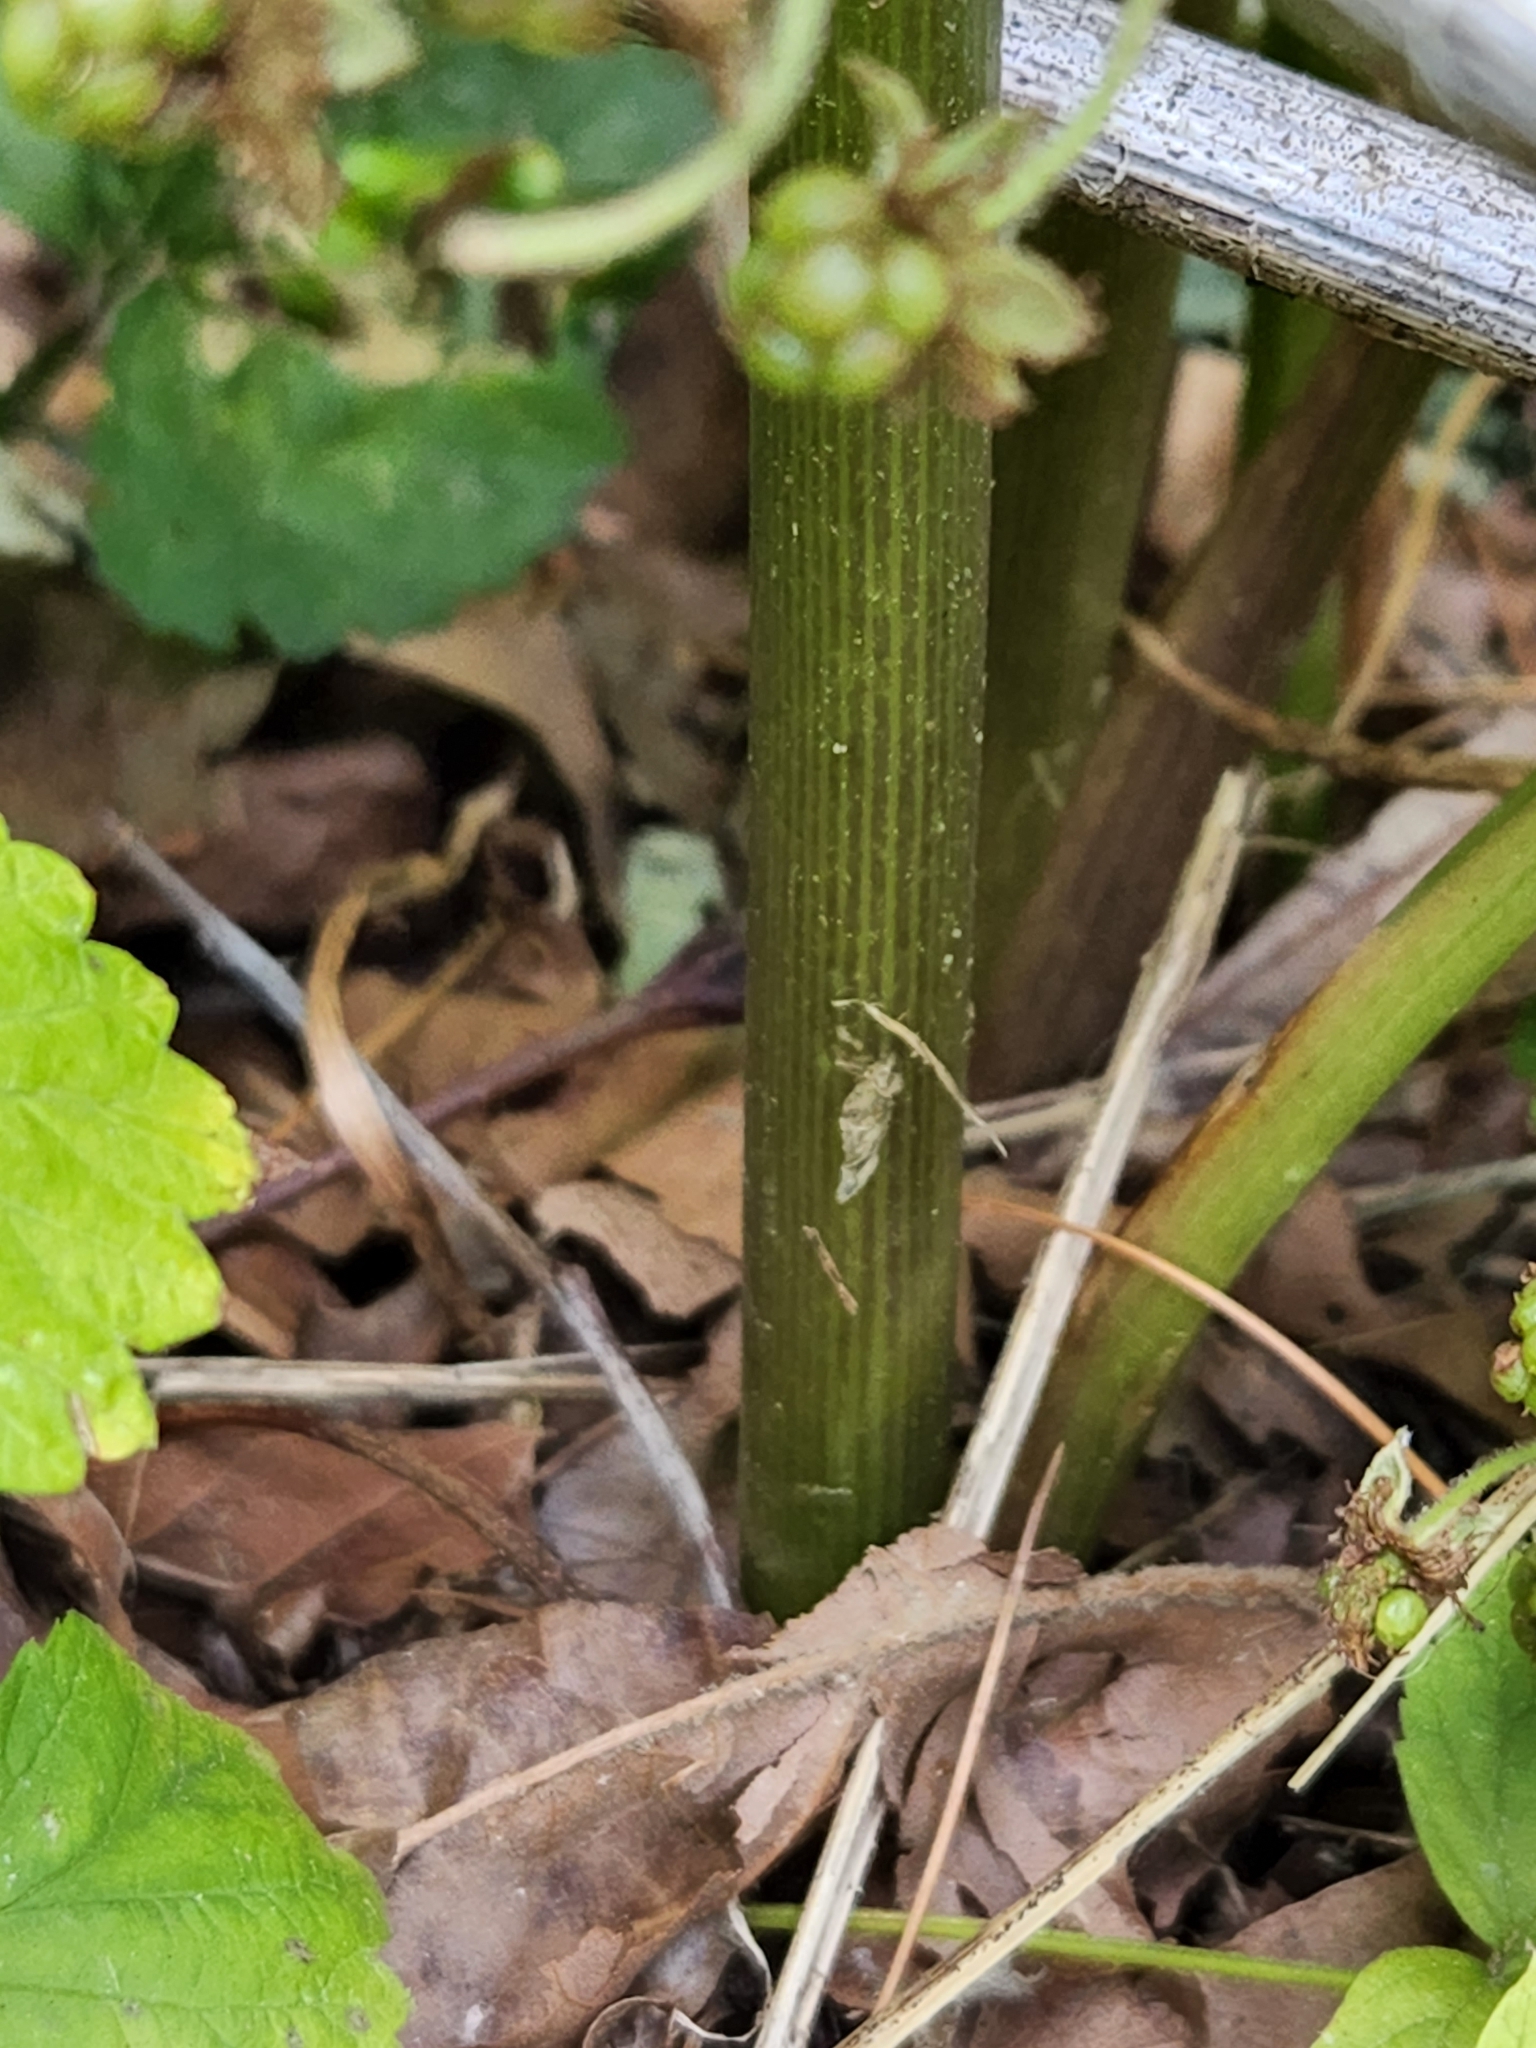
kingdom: Plantae
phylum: Tracheophyta
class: Liliopsida
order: Alismatales
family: Araceae
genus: Arisaema
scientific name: Arisaema triphyllum
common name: Jack-in-the-pulpit
